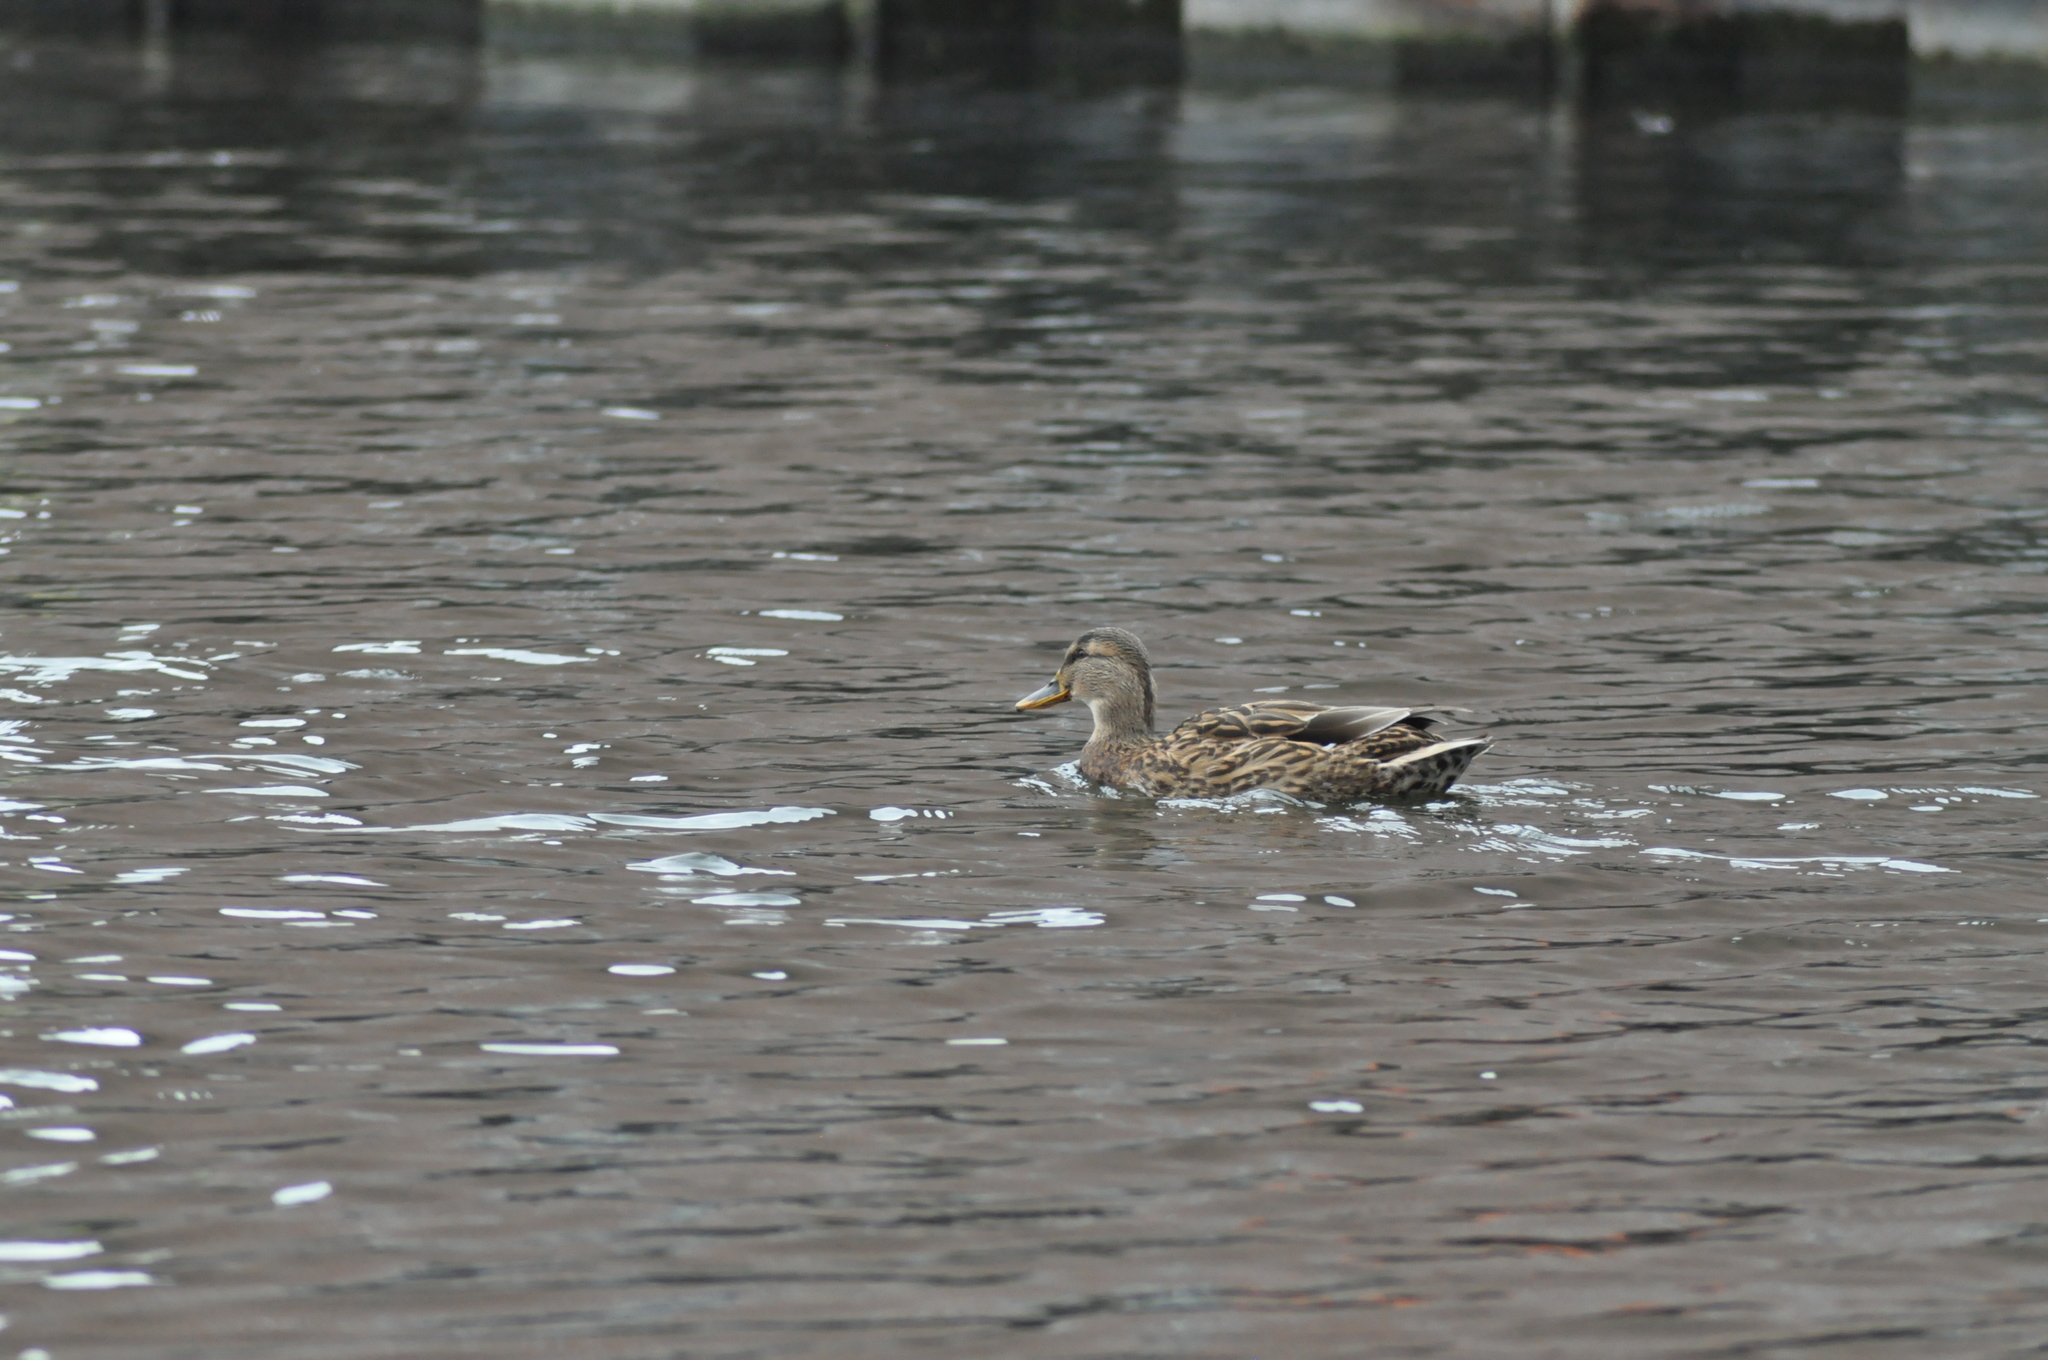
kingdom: Animalia
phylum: Chordata
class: Aves
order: Anseriformes
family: Anatidae
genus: Anas
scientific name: Anas platyrhynchos
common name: Mallard
